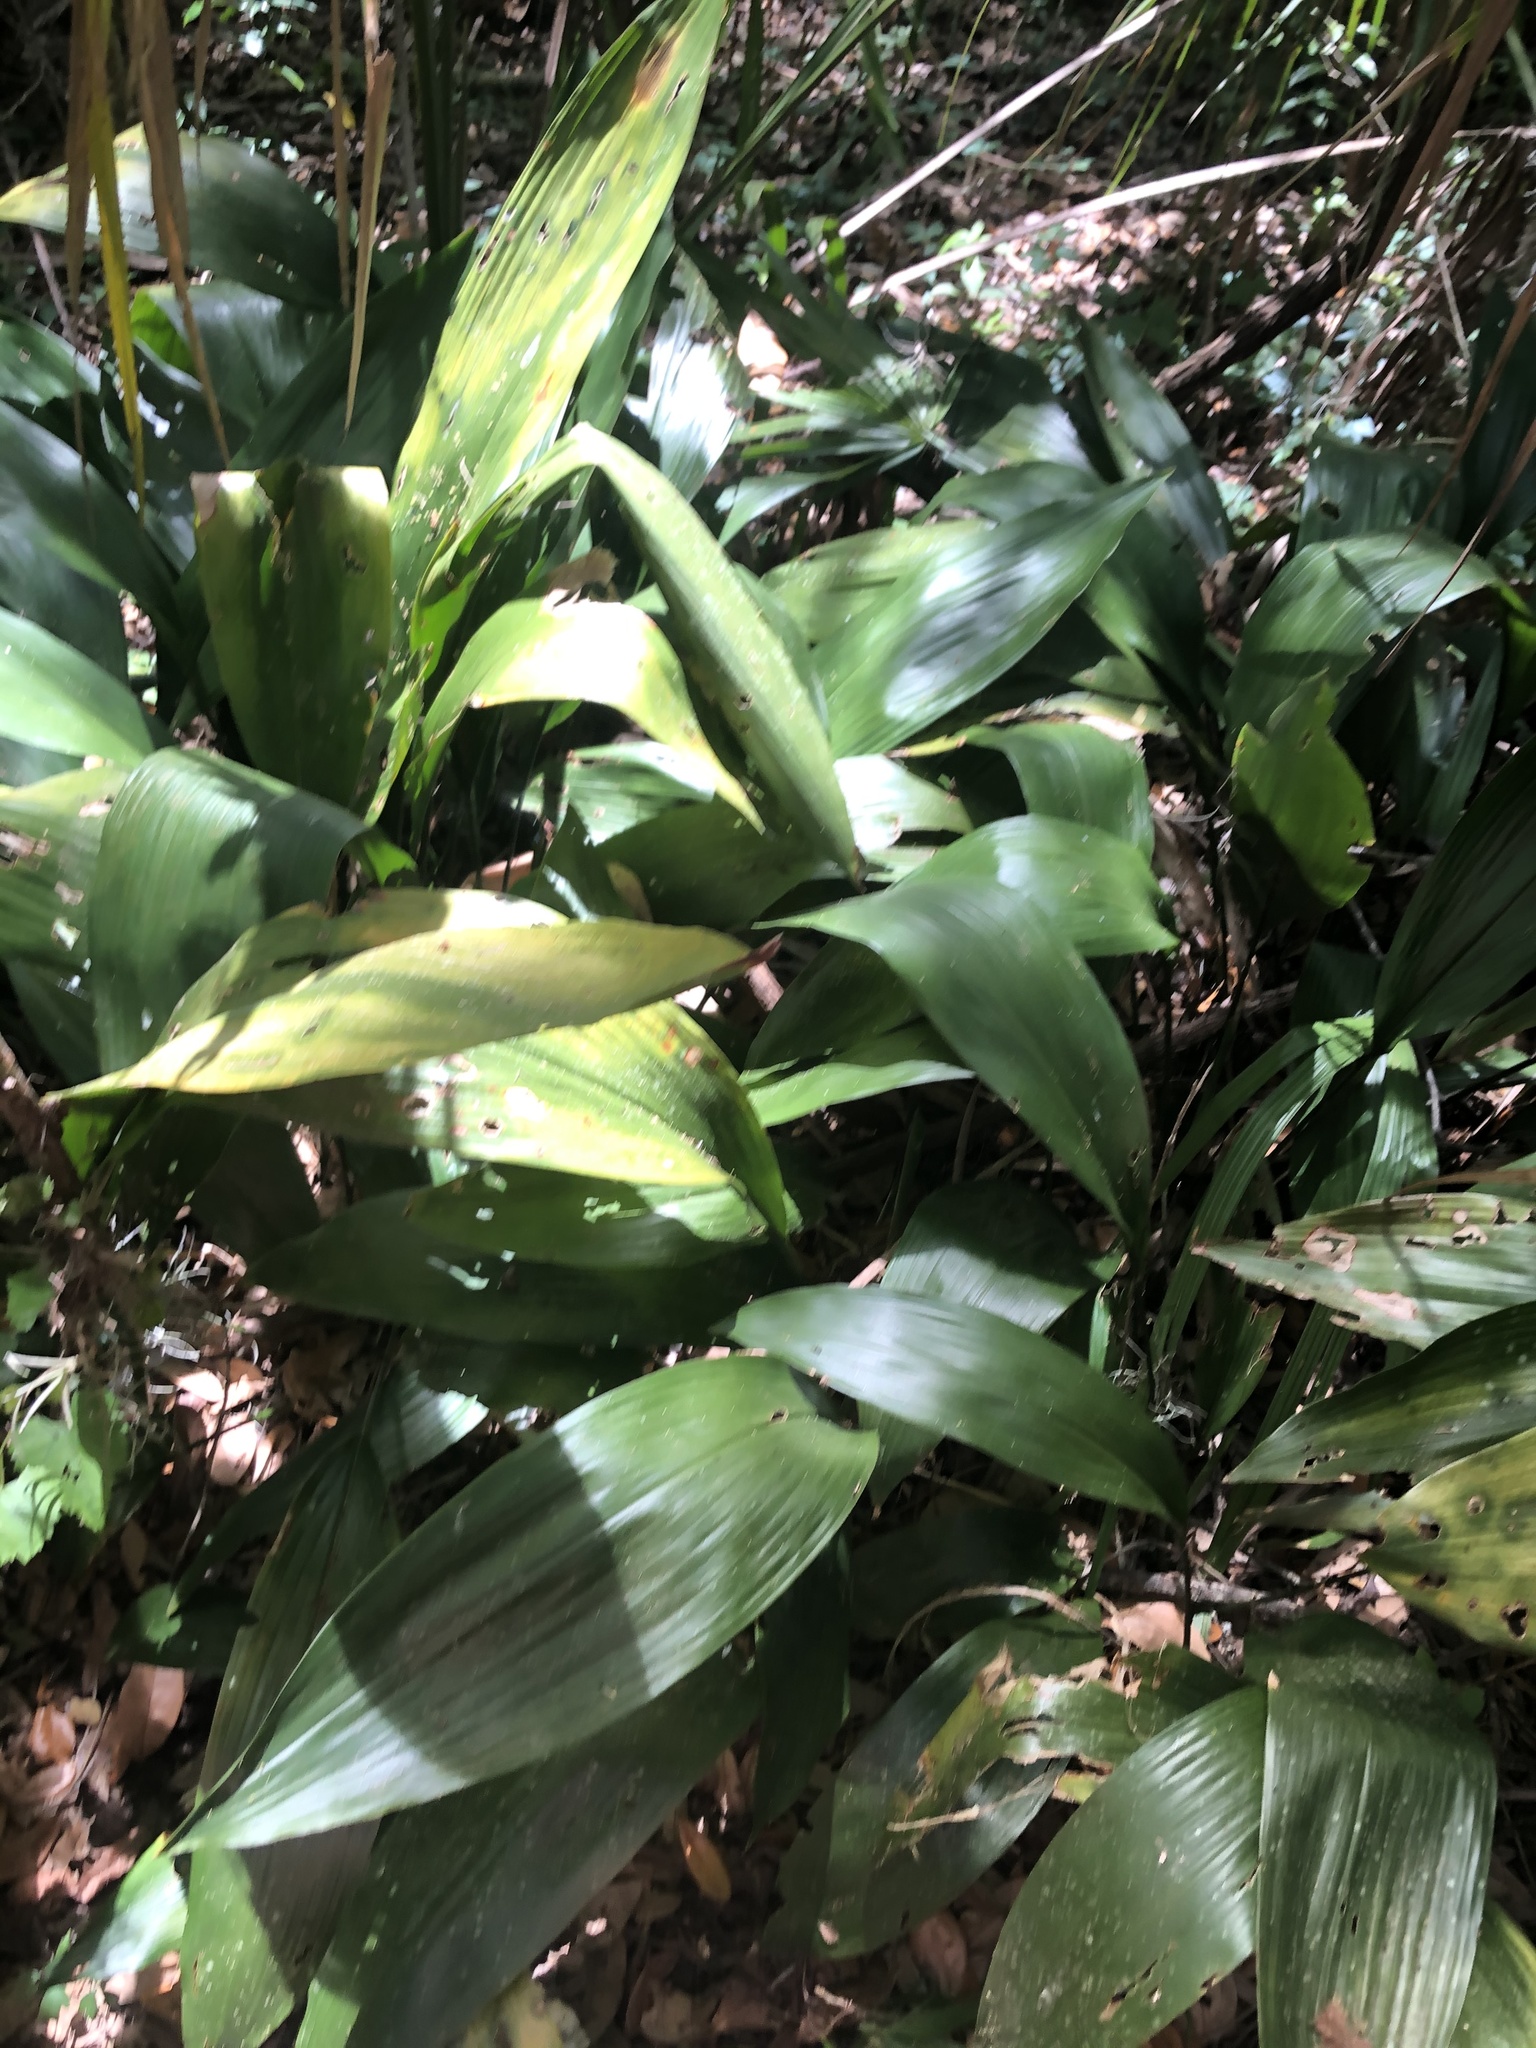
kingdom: Plantae
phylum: Tracheophyta
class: Liliopsida
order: Asparagales
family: Asparagaceae
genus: Aspidistra
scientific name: Aspidistra elatior
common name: Cast-iron-plant
